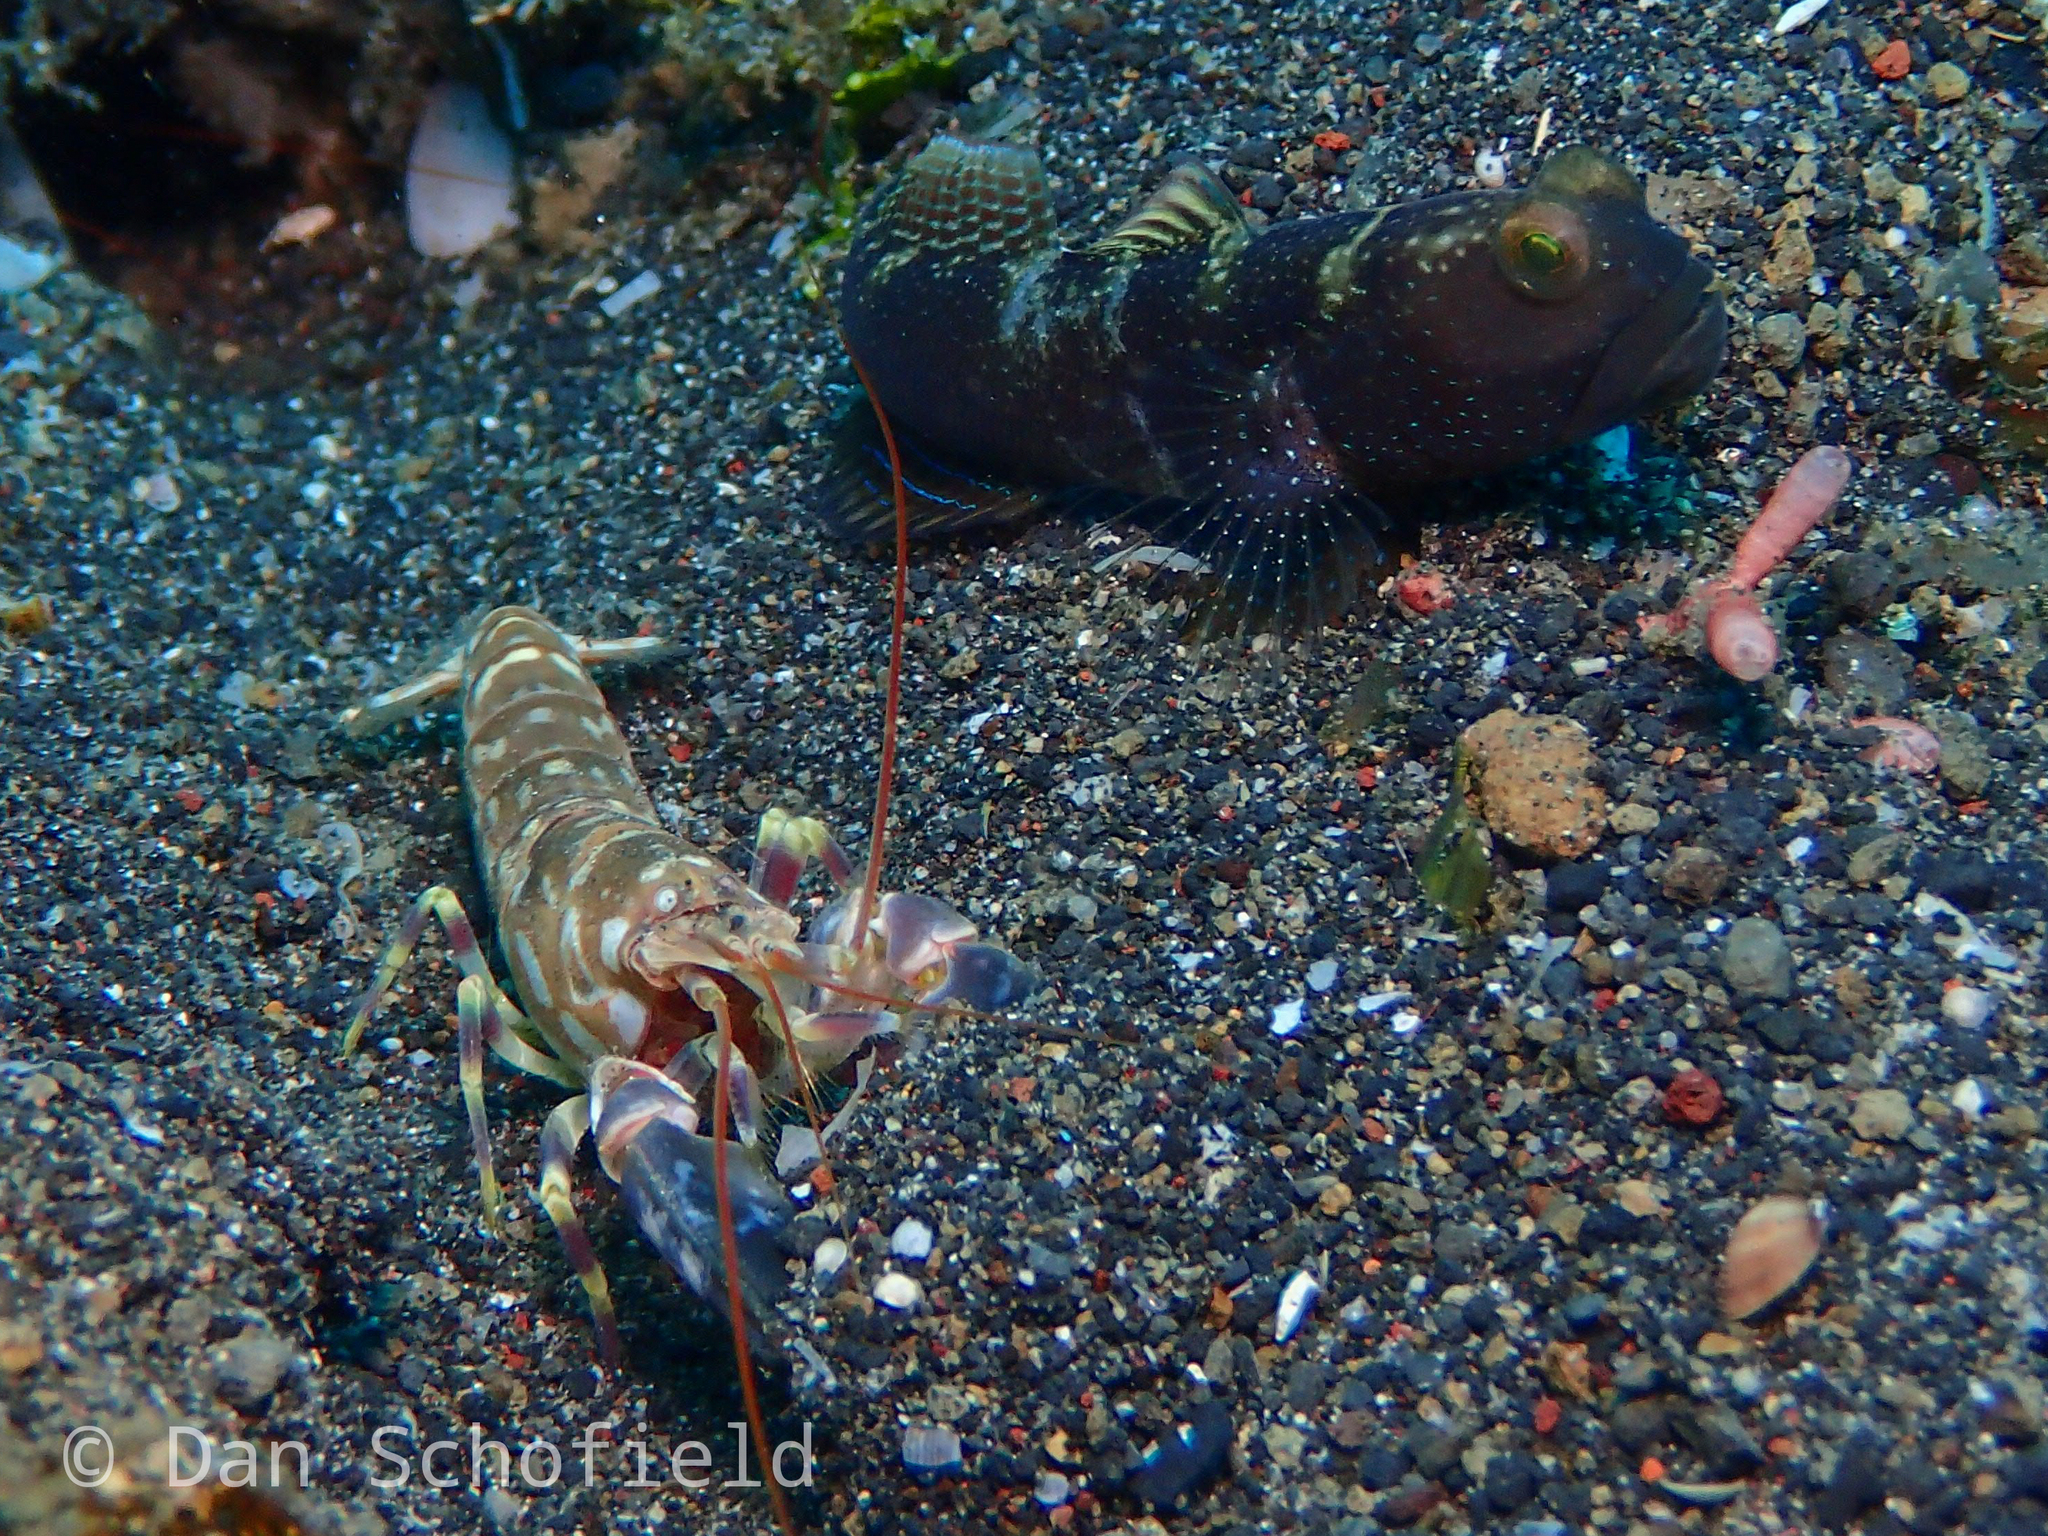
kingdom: Animalia
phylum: Chordata
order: Perciformes
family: Gobiidae
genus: Cryptocentrus
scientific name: Cryptocentrus fasciatus
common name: Barred prawn-goby
